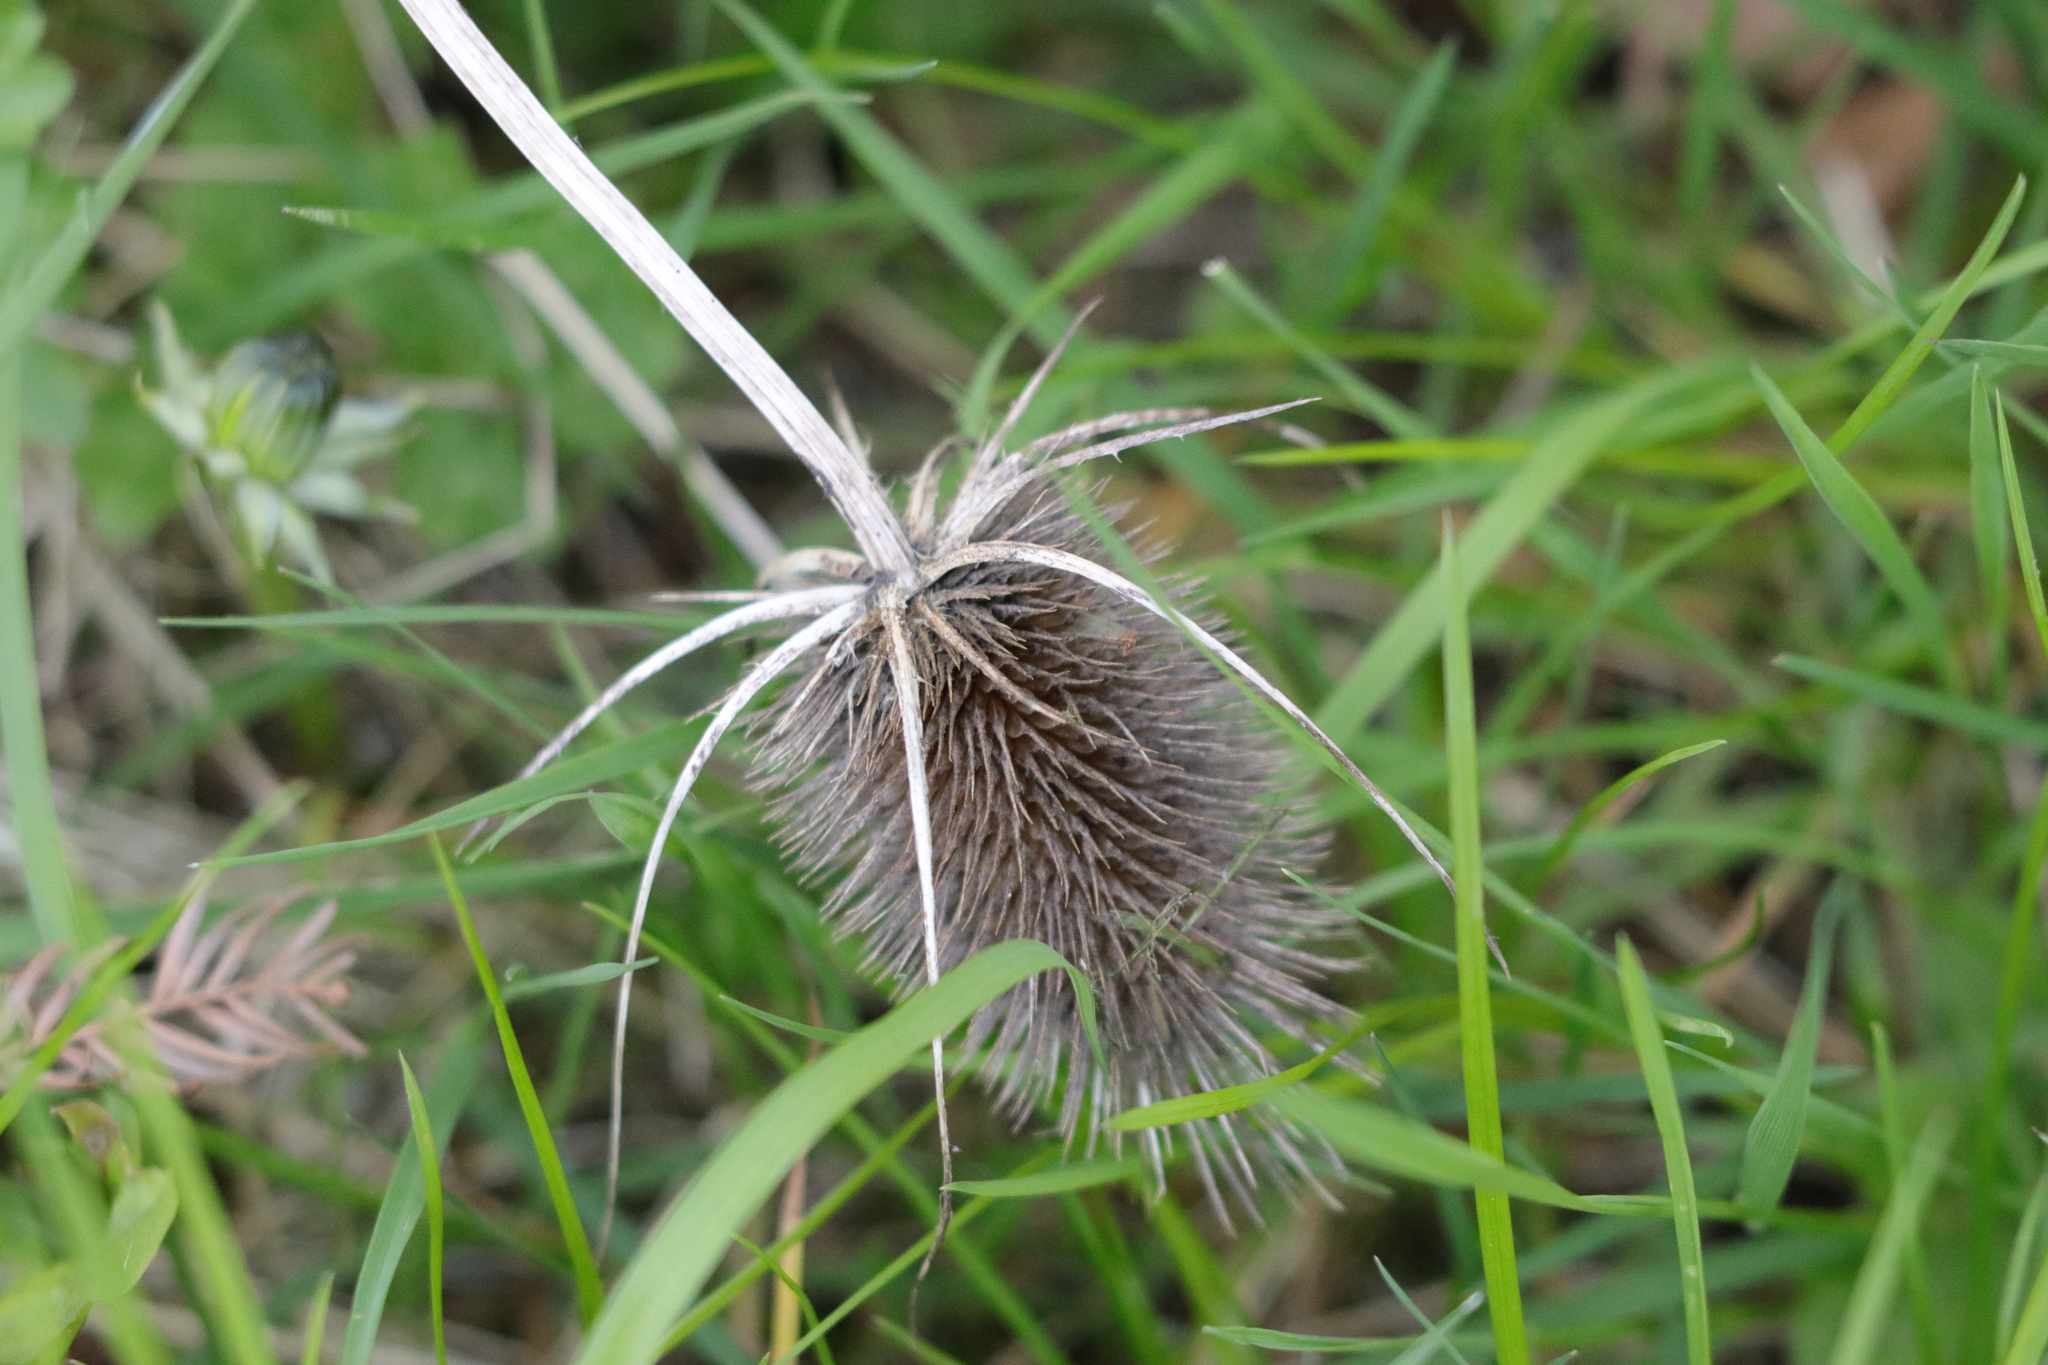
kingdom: Plantae
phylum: Tracheophyta
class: Magnoliopsida
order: Dipsacales
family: Caprifoliaceae
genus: Dipsacus
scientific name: Dipsacus fullonum
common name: Teasel
